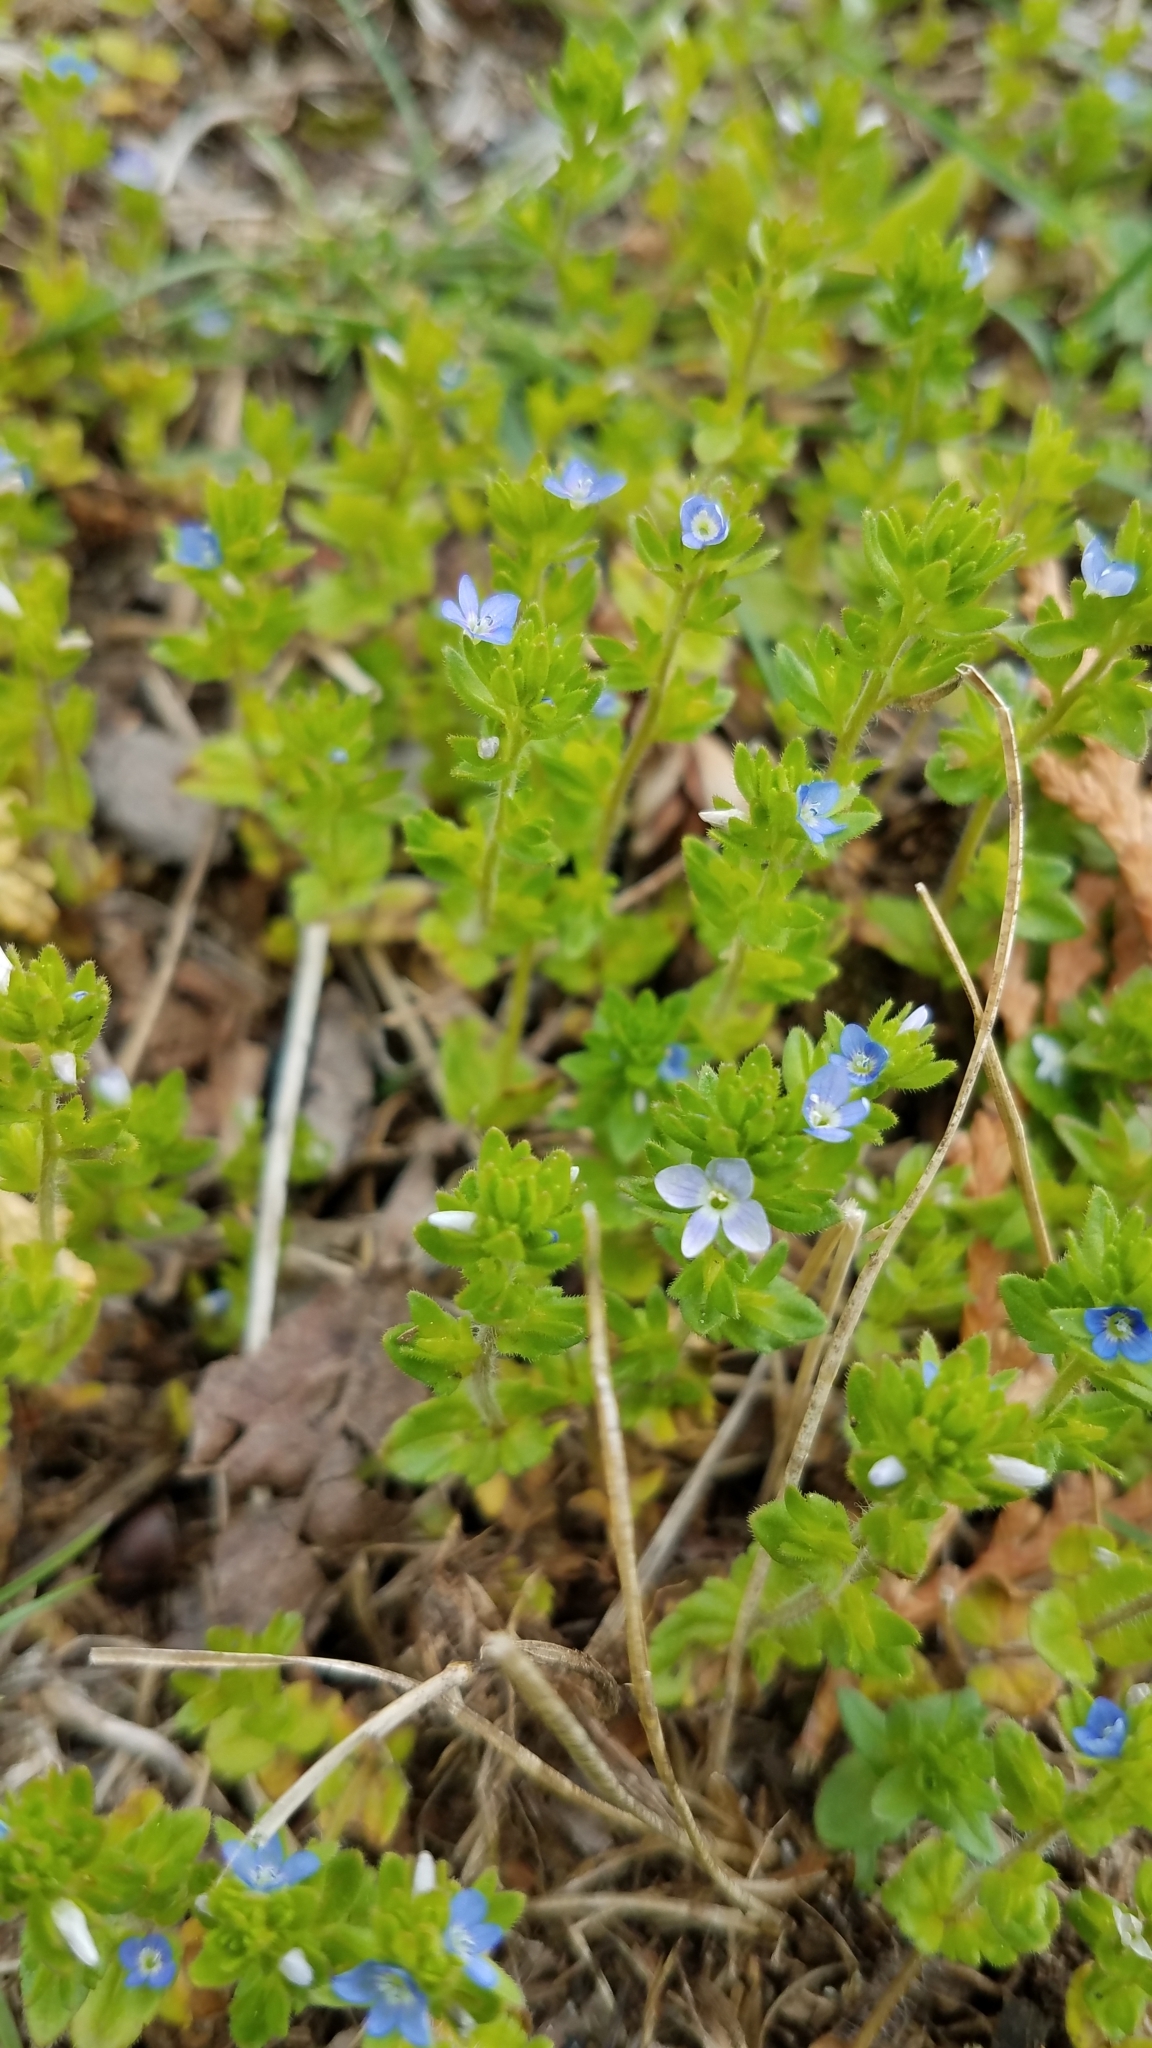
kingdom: Plantae
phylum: Tracheophyta
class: Magnoliopsida
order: Lamiales
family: Plantaginaceae
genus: Veronica
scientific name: Veronica arvensis
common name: Corn speedwell
